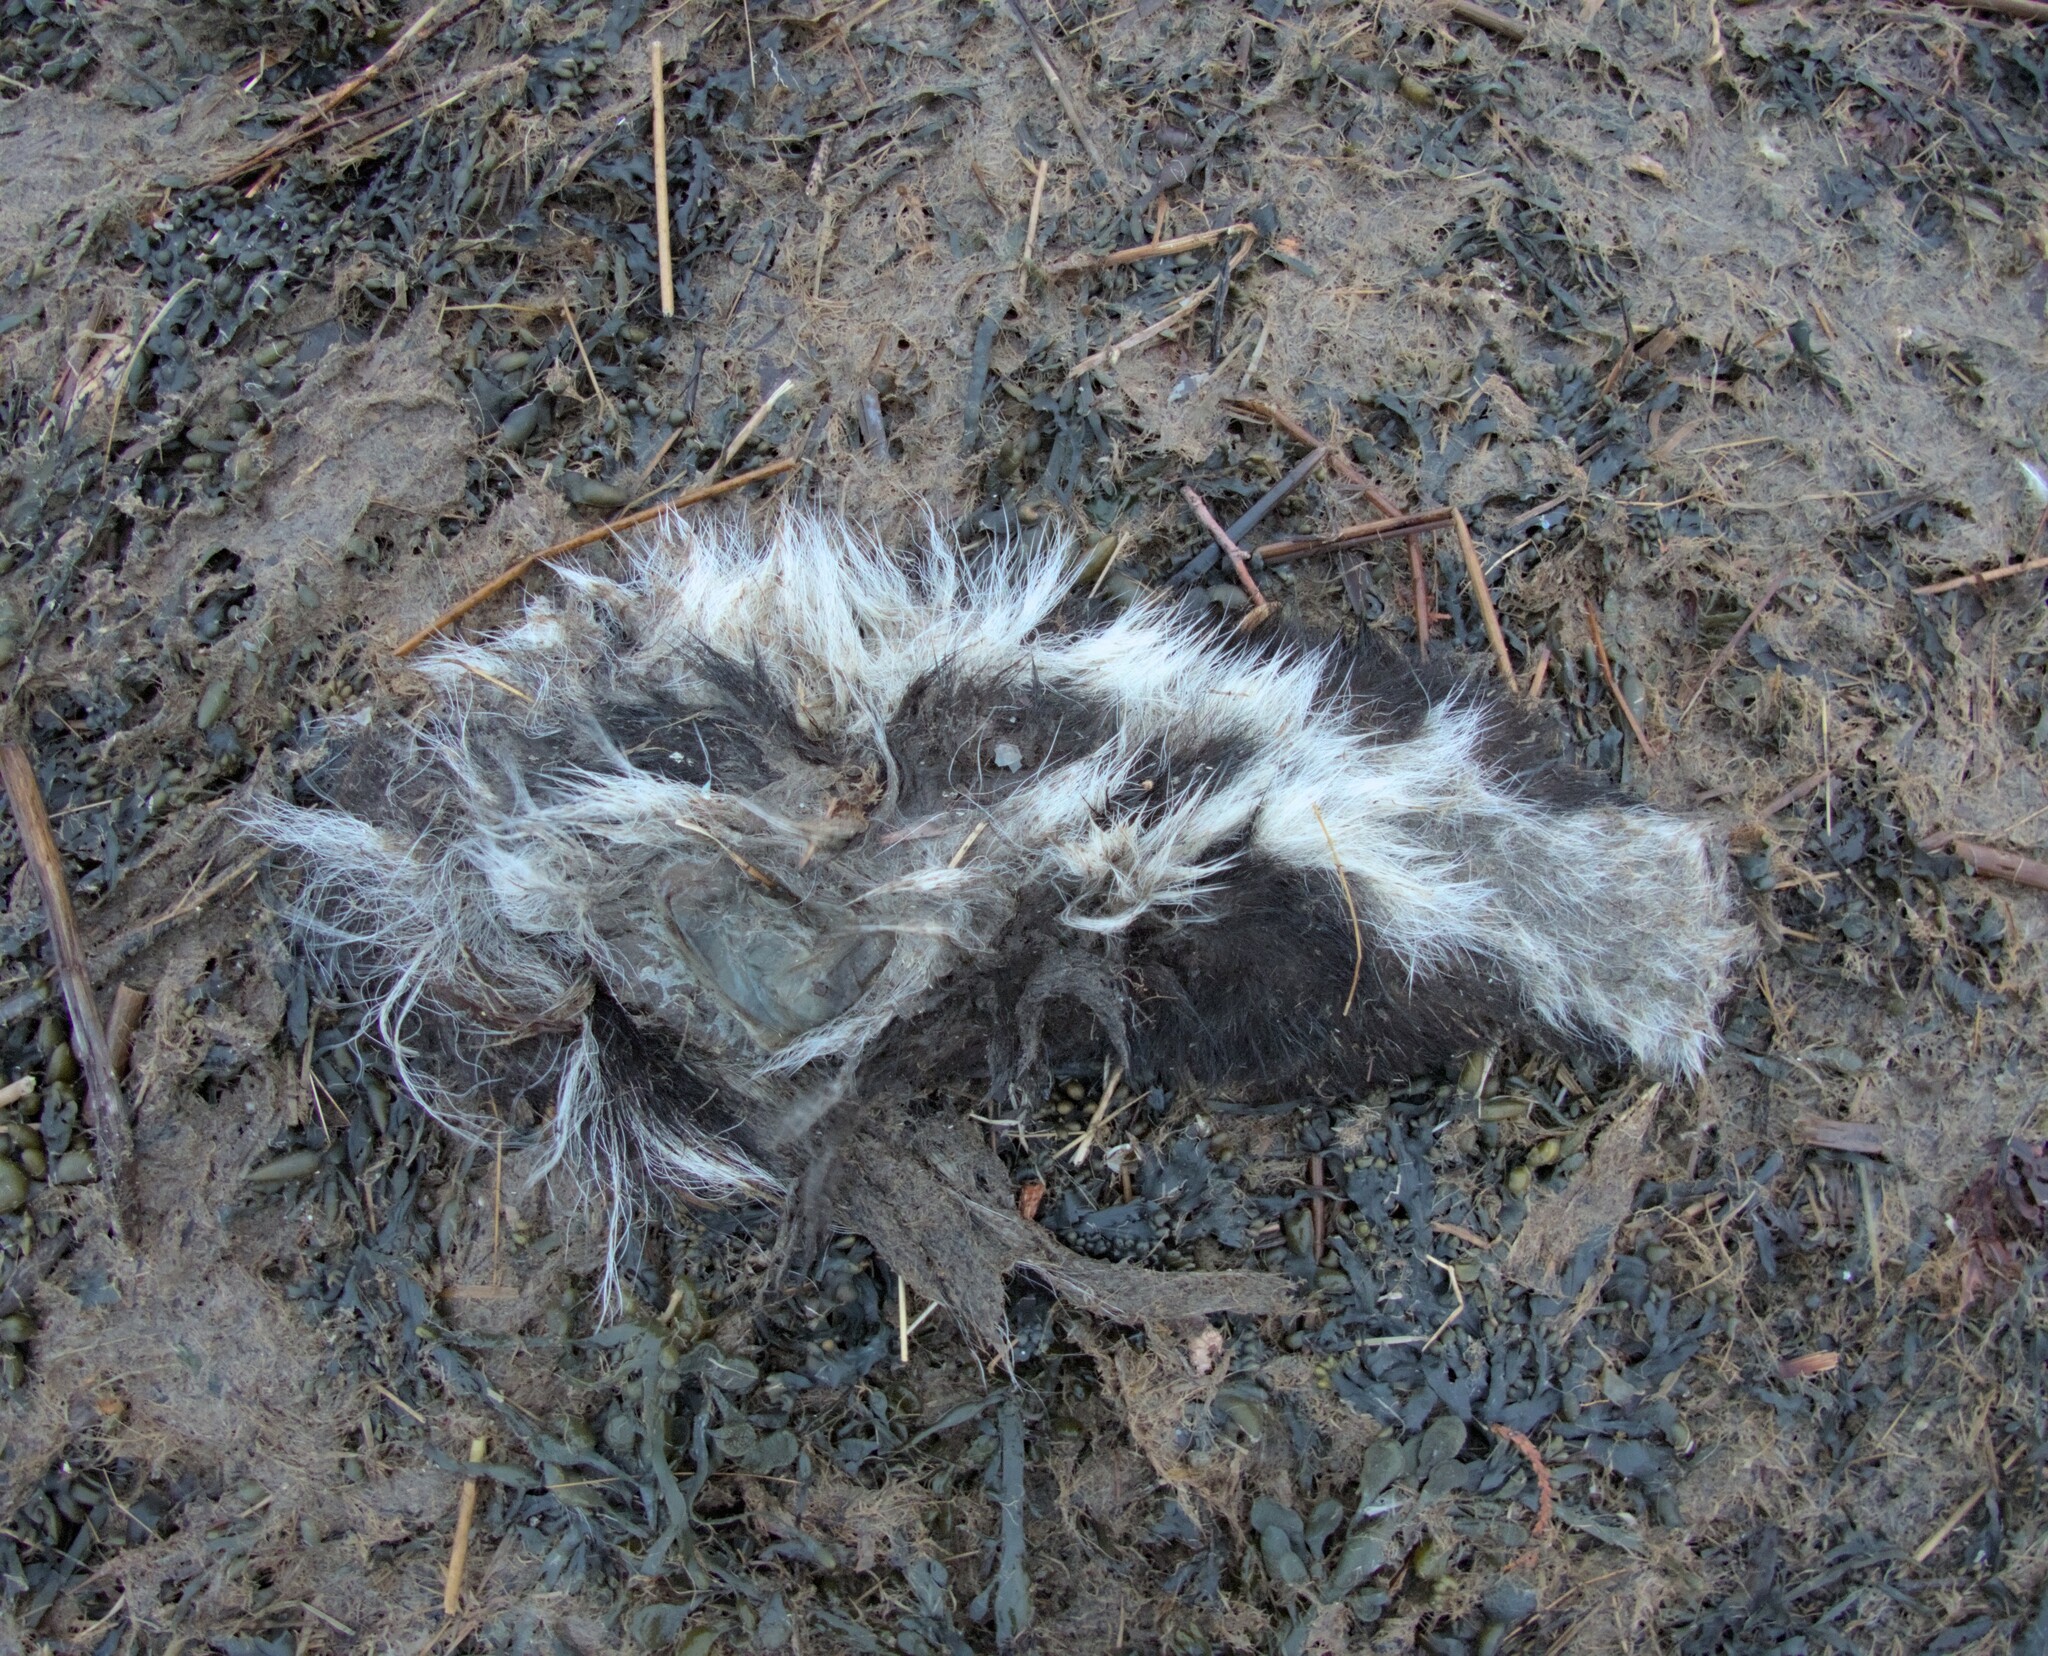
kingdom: Animalia
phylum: Chordata
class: Mammalia
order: Carnivora
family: Mephitidae
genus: Mephitis
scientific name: Mephitis mephitis
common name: Striped skunk
